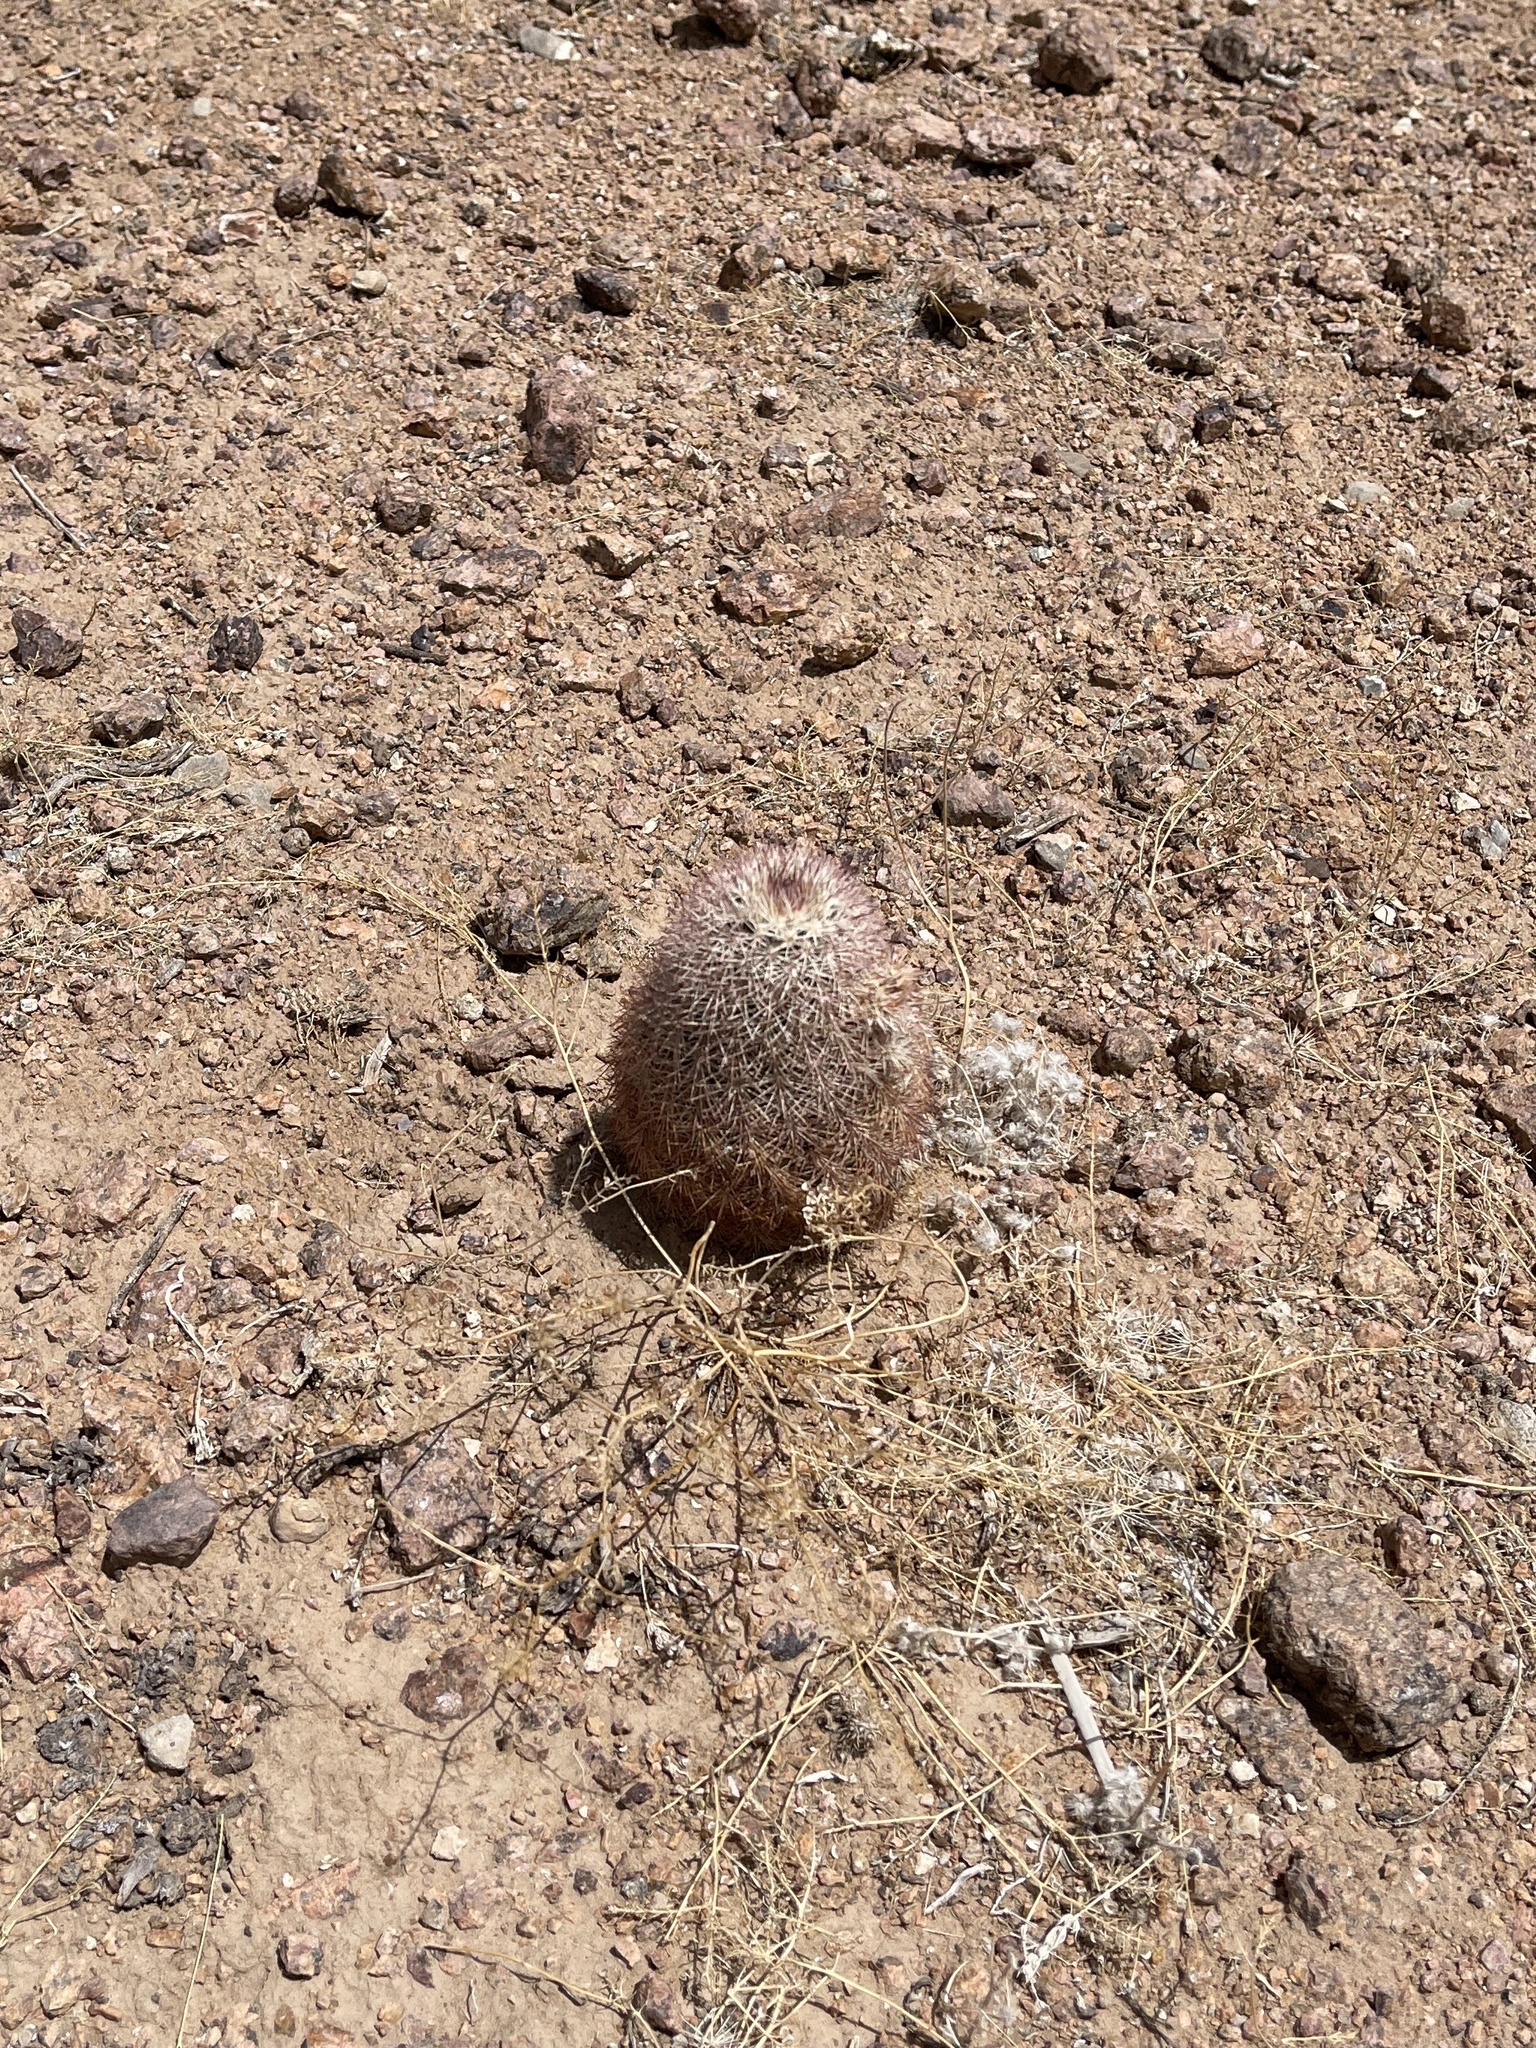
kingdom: Plantae
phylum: Tracheophyta
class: Magnoliopsida
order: Caryophyllales
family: Cactaceae
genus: Echinocereus
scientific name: Echinocereus dasyacanthus
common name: Spiny hedgehog cactus
